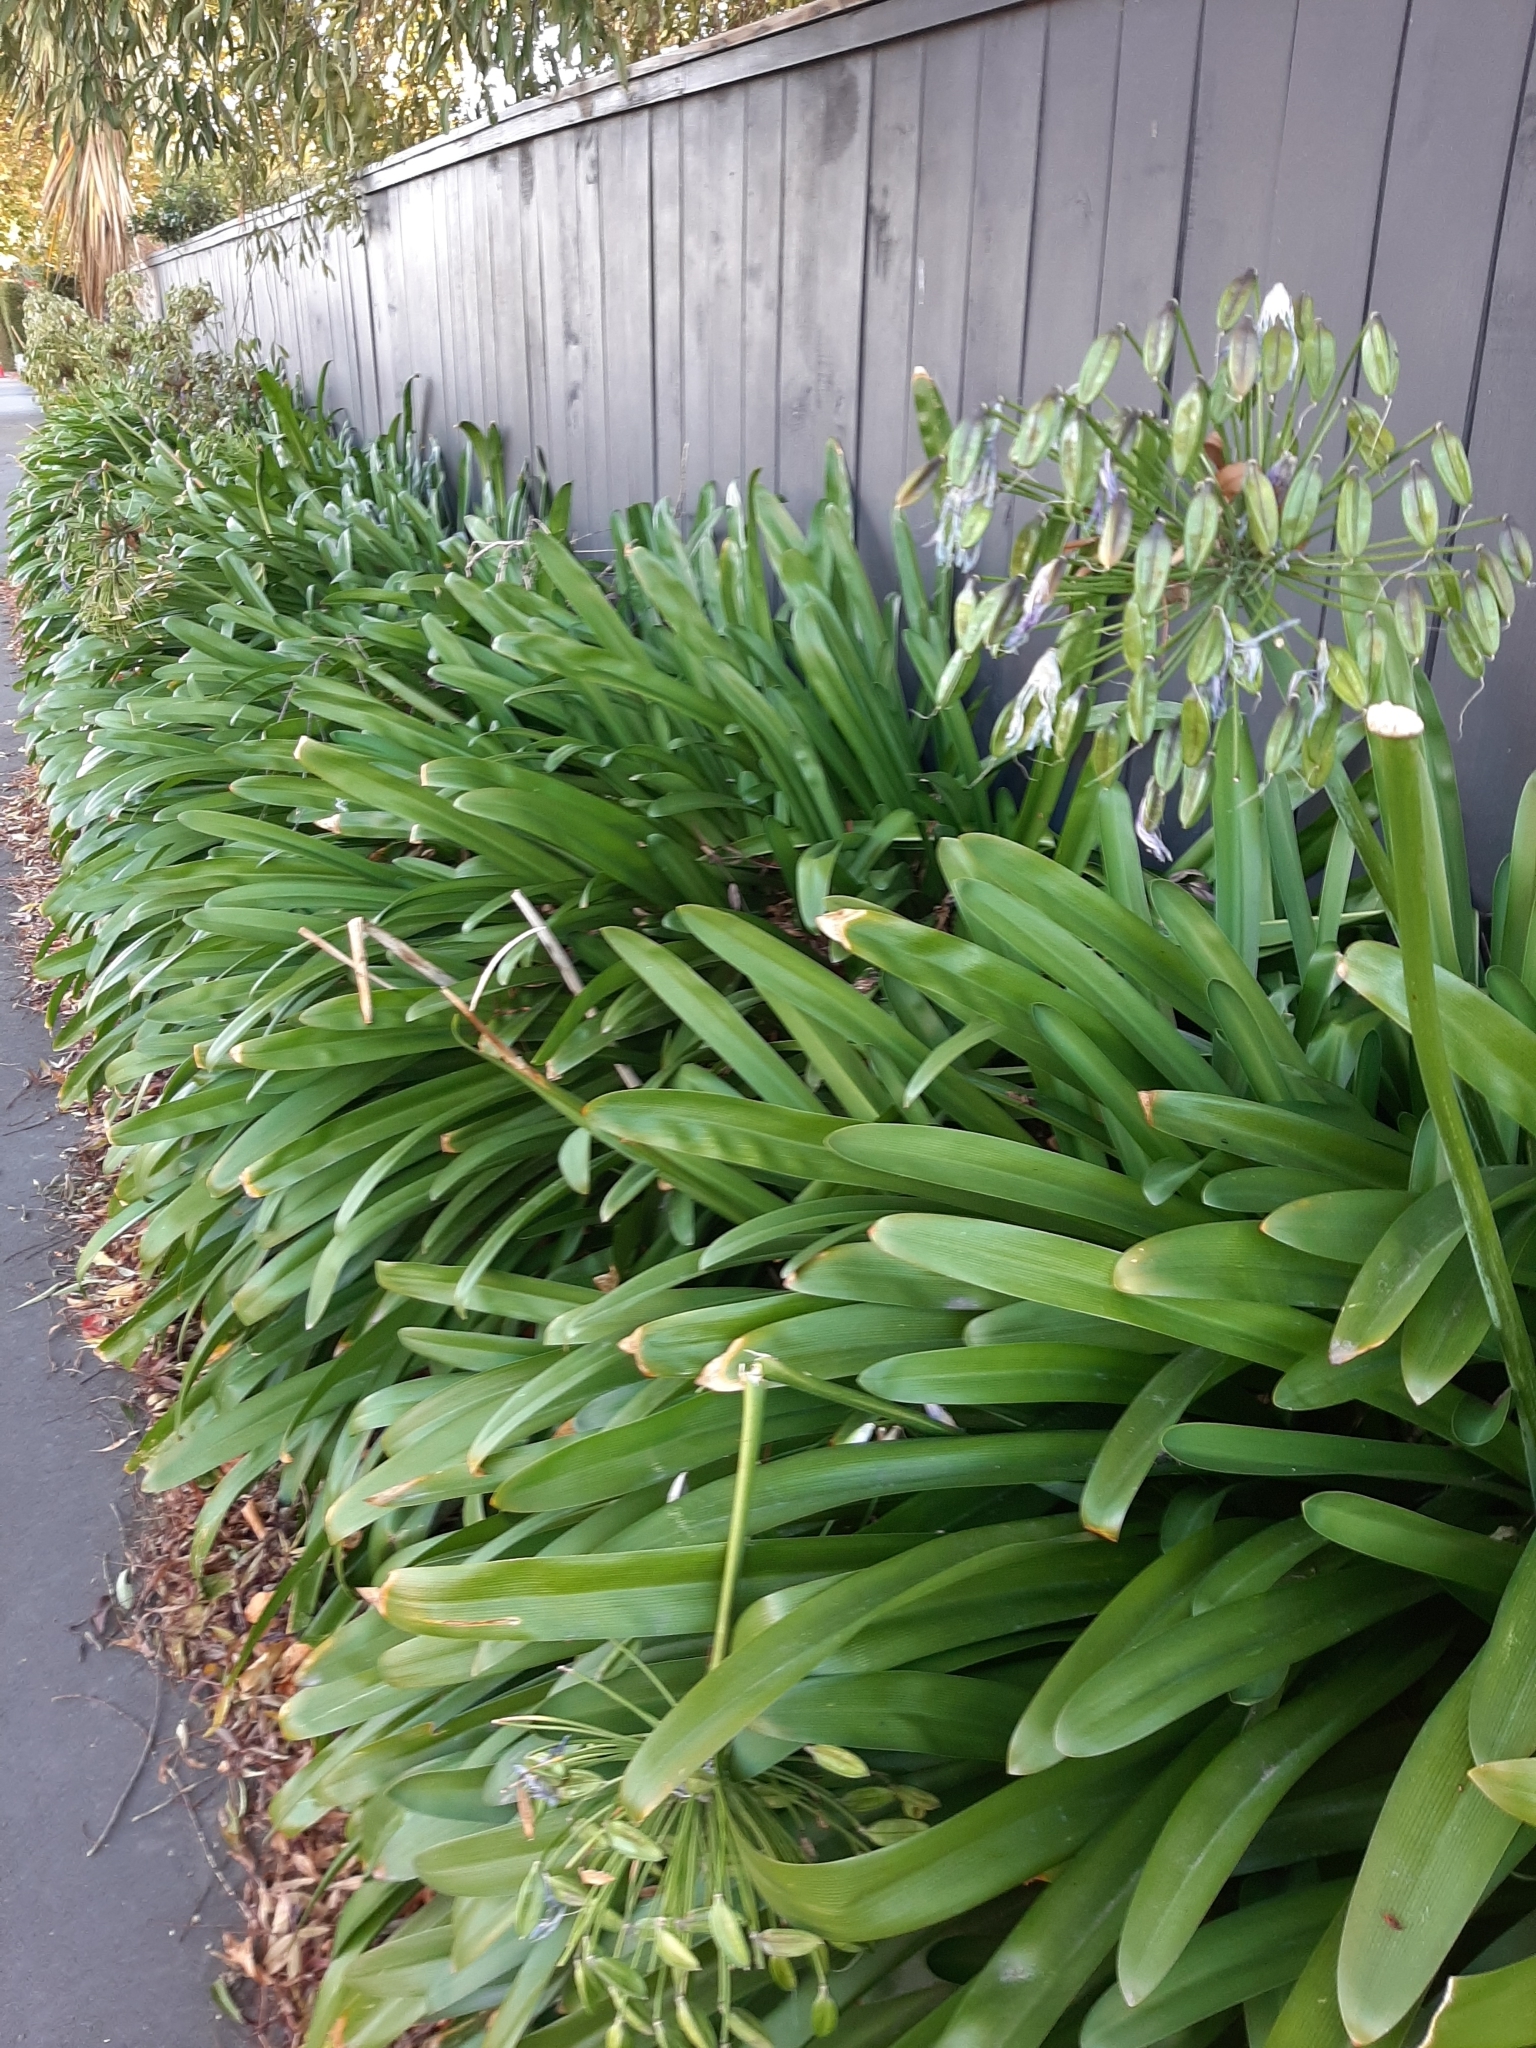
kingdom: Plantae
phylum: Tracheophyta
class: Liliopsida
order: Asparagales
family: Amaryllidaceae
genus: Agapanthus
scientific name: Agapanthus praecox
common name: African-lily
